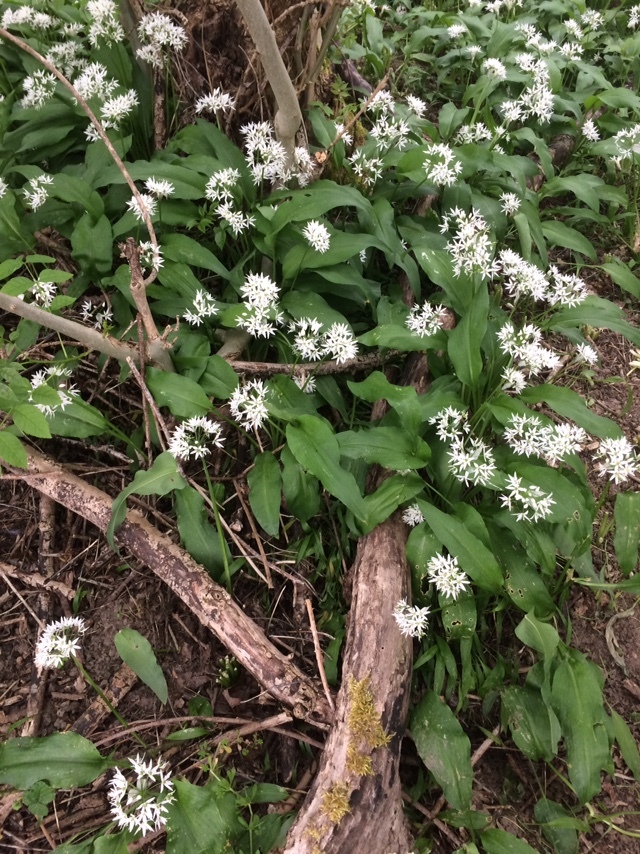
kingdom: Plantae
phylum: Tracheophyta
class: Liliopsida
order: Asparagales
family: Amaryllidaceae
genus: Allium
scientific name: Allium ursinum
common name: Ramsons
